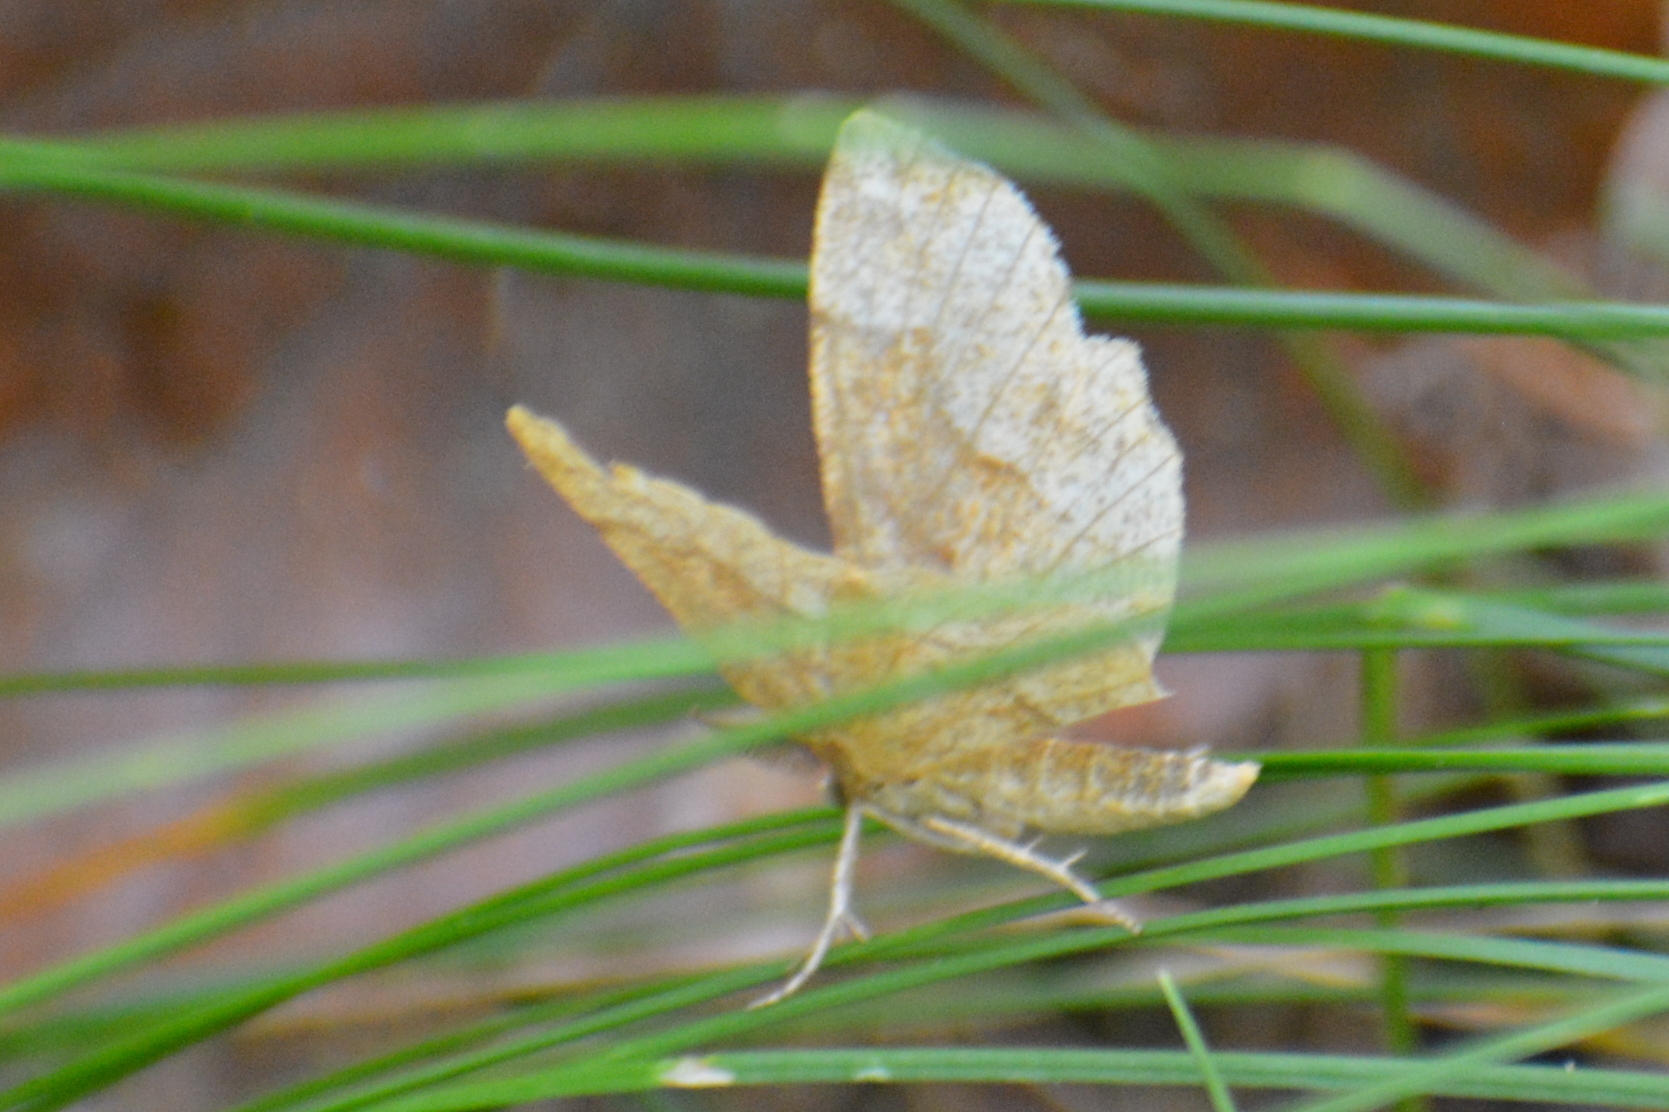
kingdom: Animalia
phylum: Arthropoda
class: Insecta
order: Lepidoptera
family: Geometridae
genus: Cepphis
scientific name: Cepphis advenaria
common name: Little thorn
